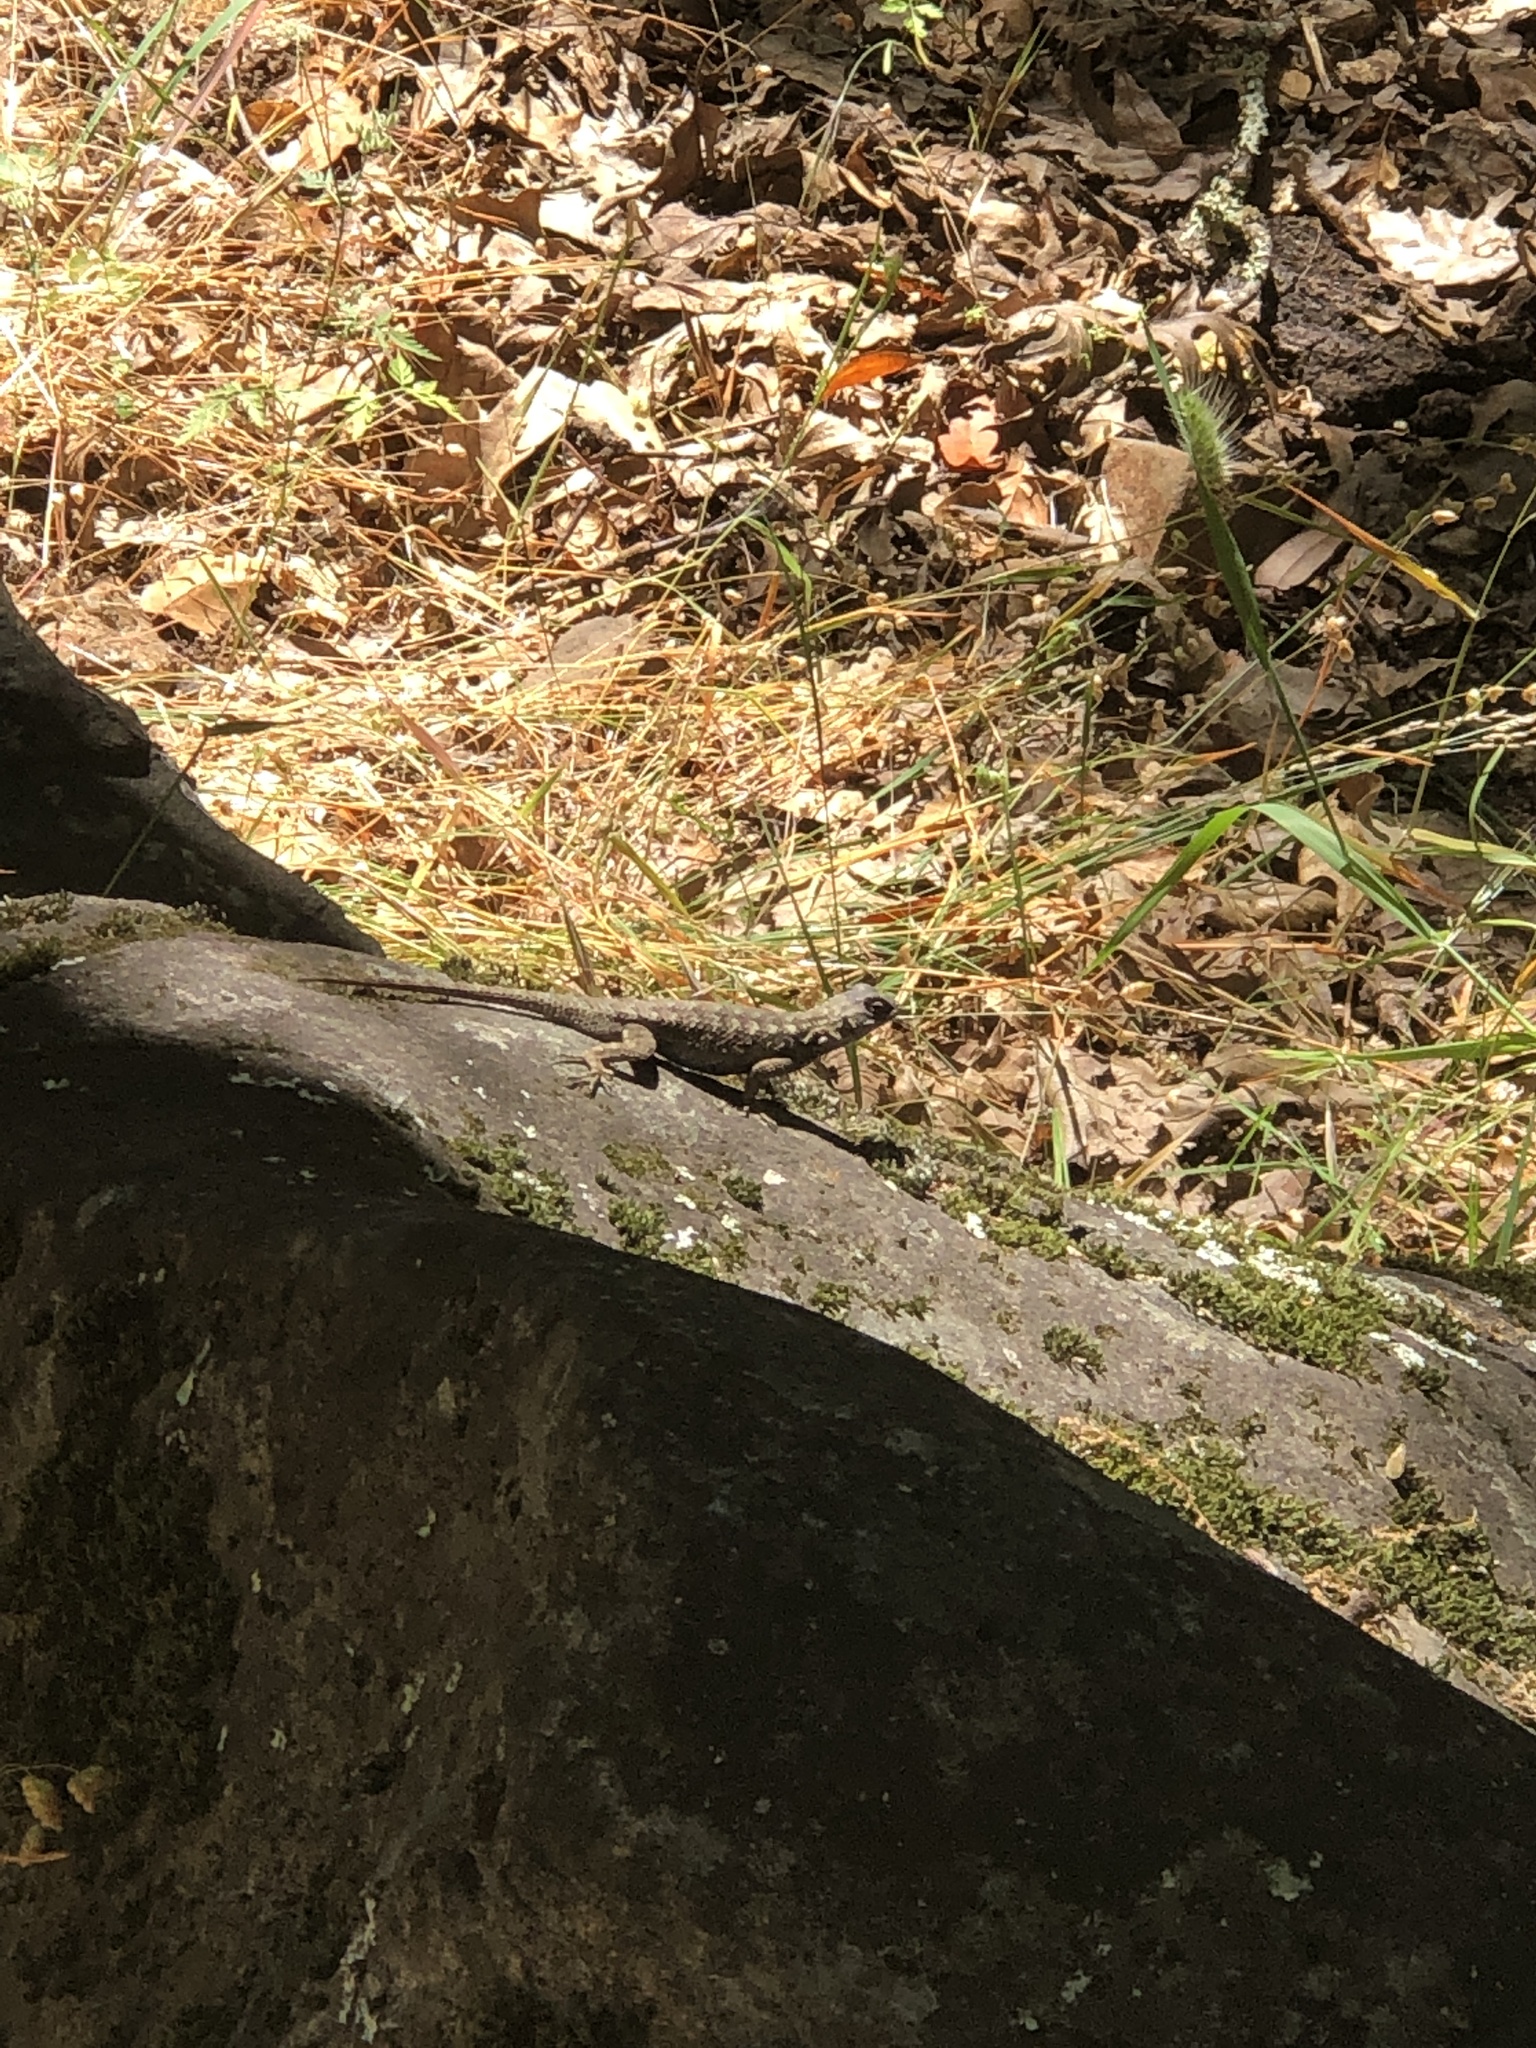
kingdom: Animalia
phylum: Chordata
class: Squamata
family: Phrynosomatidae
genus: Sceloporus
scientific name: Sceloporus occidentalis
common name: Western fence lizard
